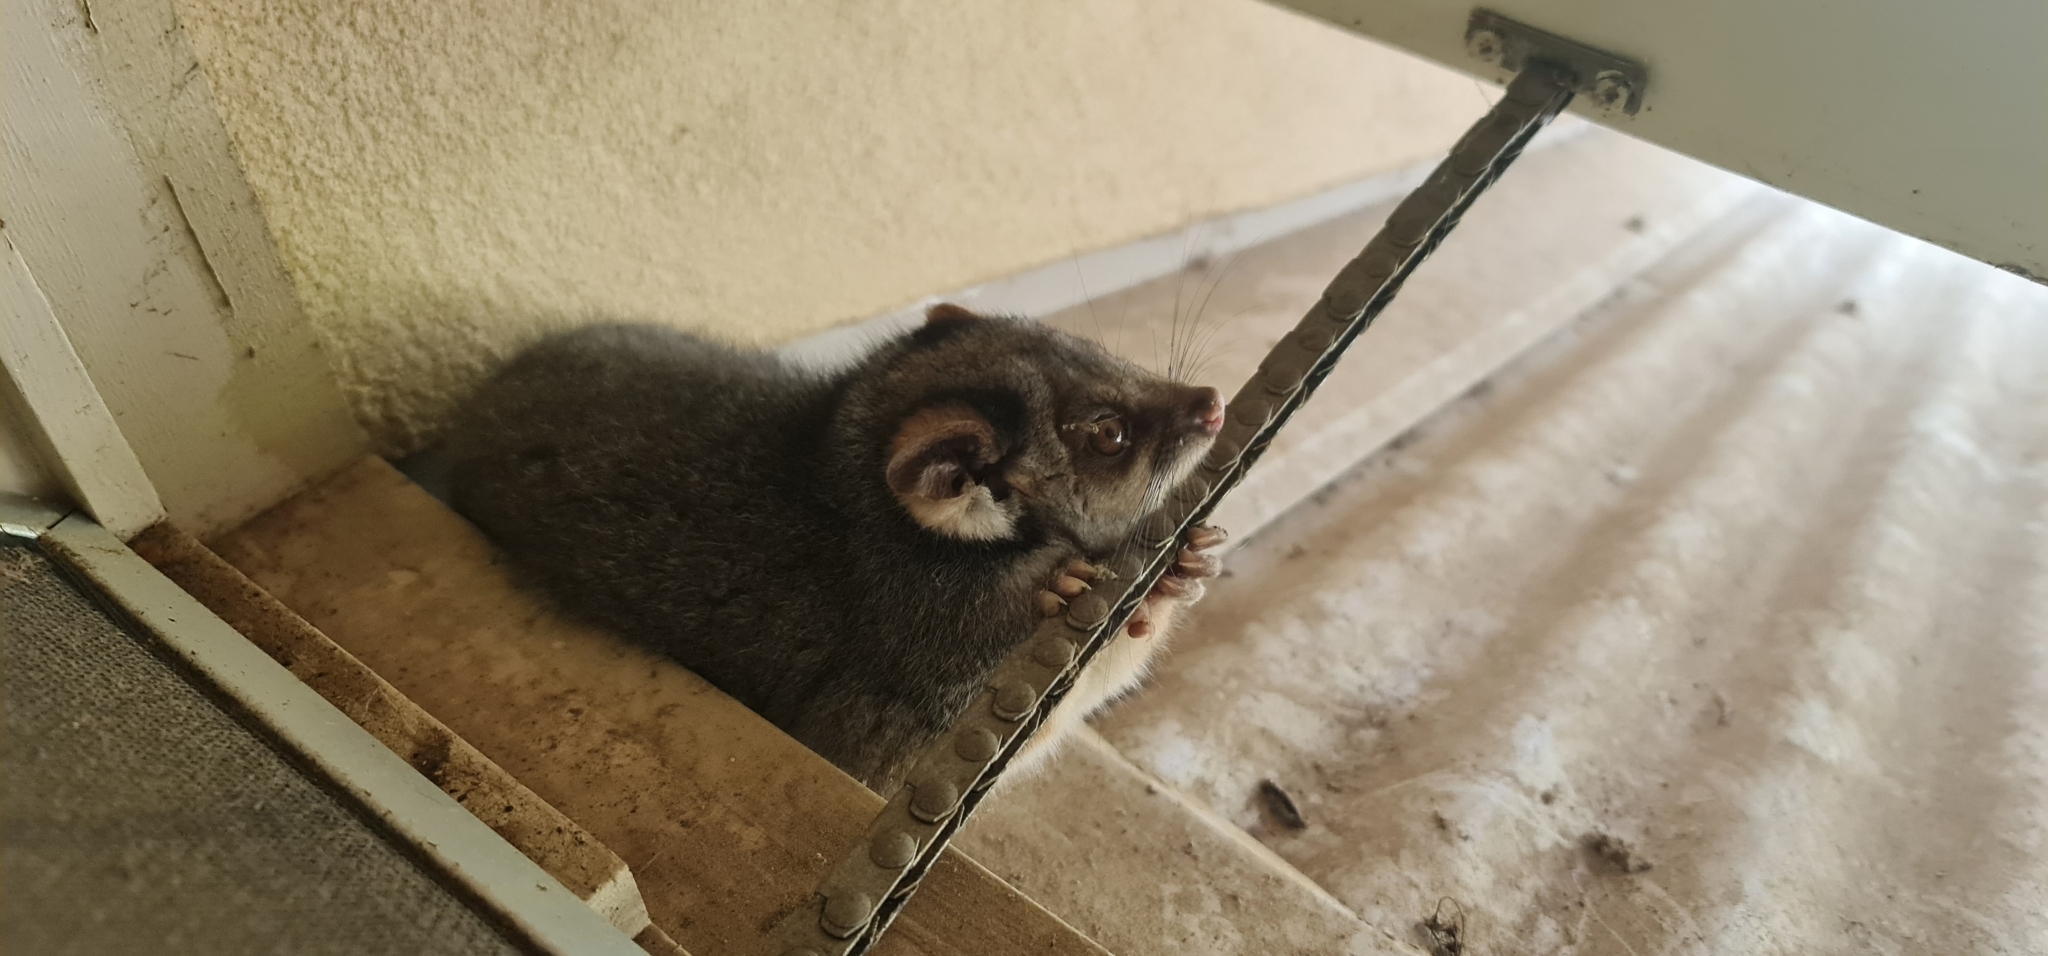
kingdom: Animalia
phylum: Chordata
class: Mammalia
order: Diprotodontia
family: Pseudocheiridae
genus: Pseudocheirus
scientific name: Pseudocheirus peregrinus
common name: Common ringtail possum
